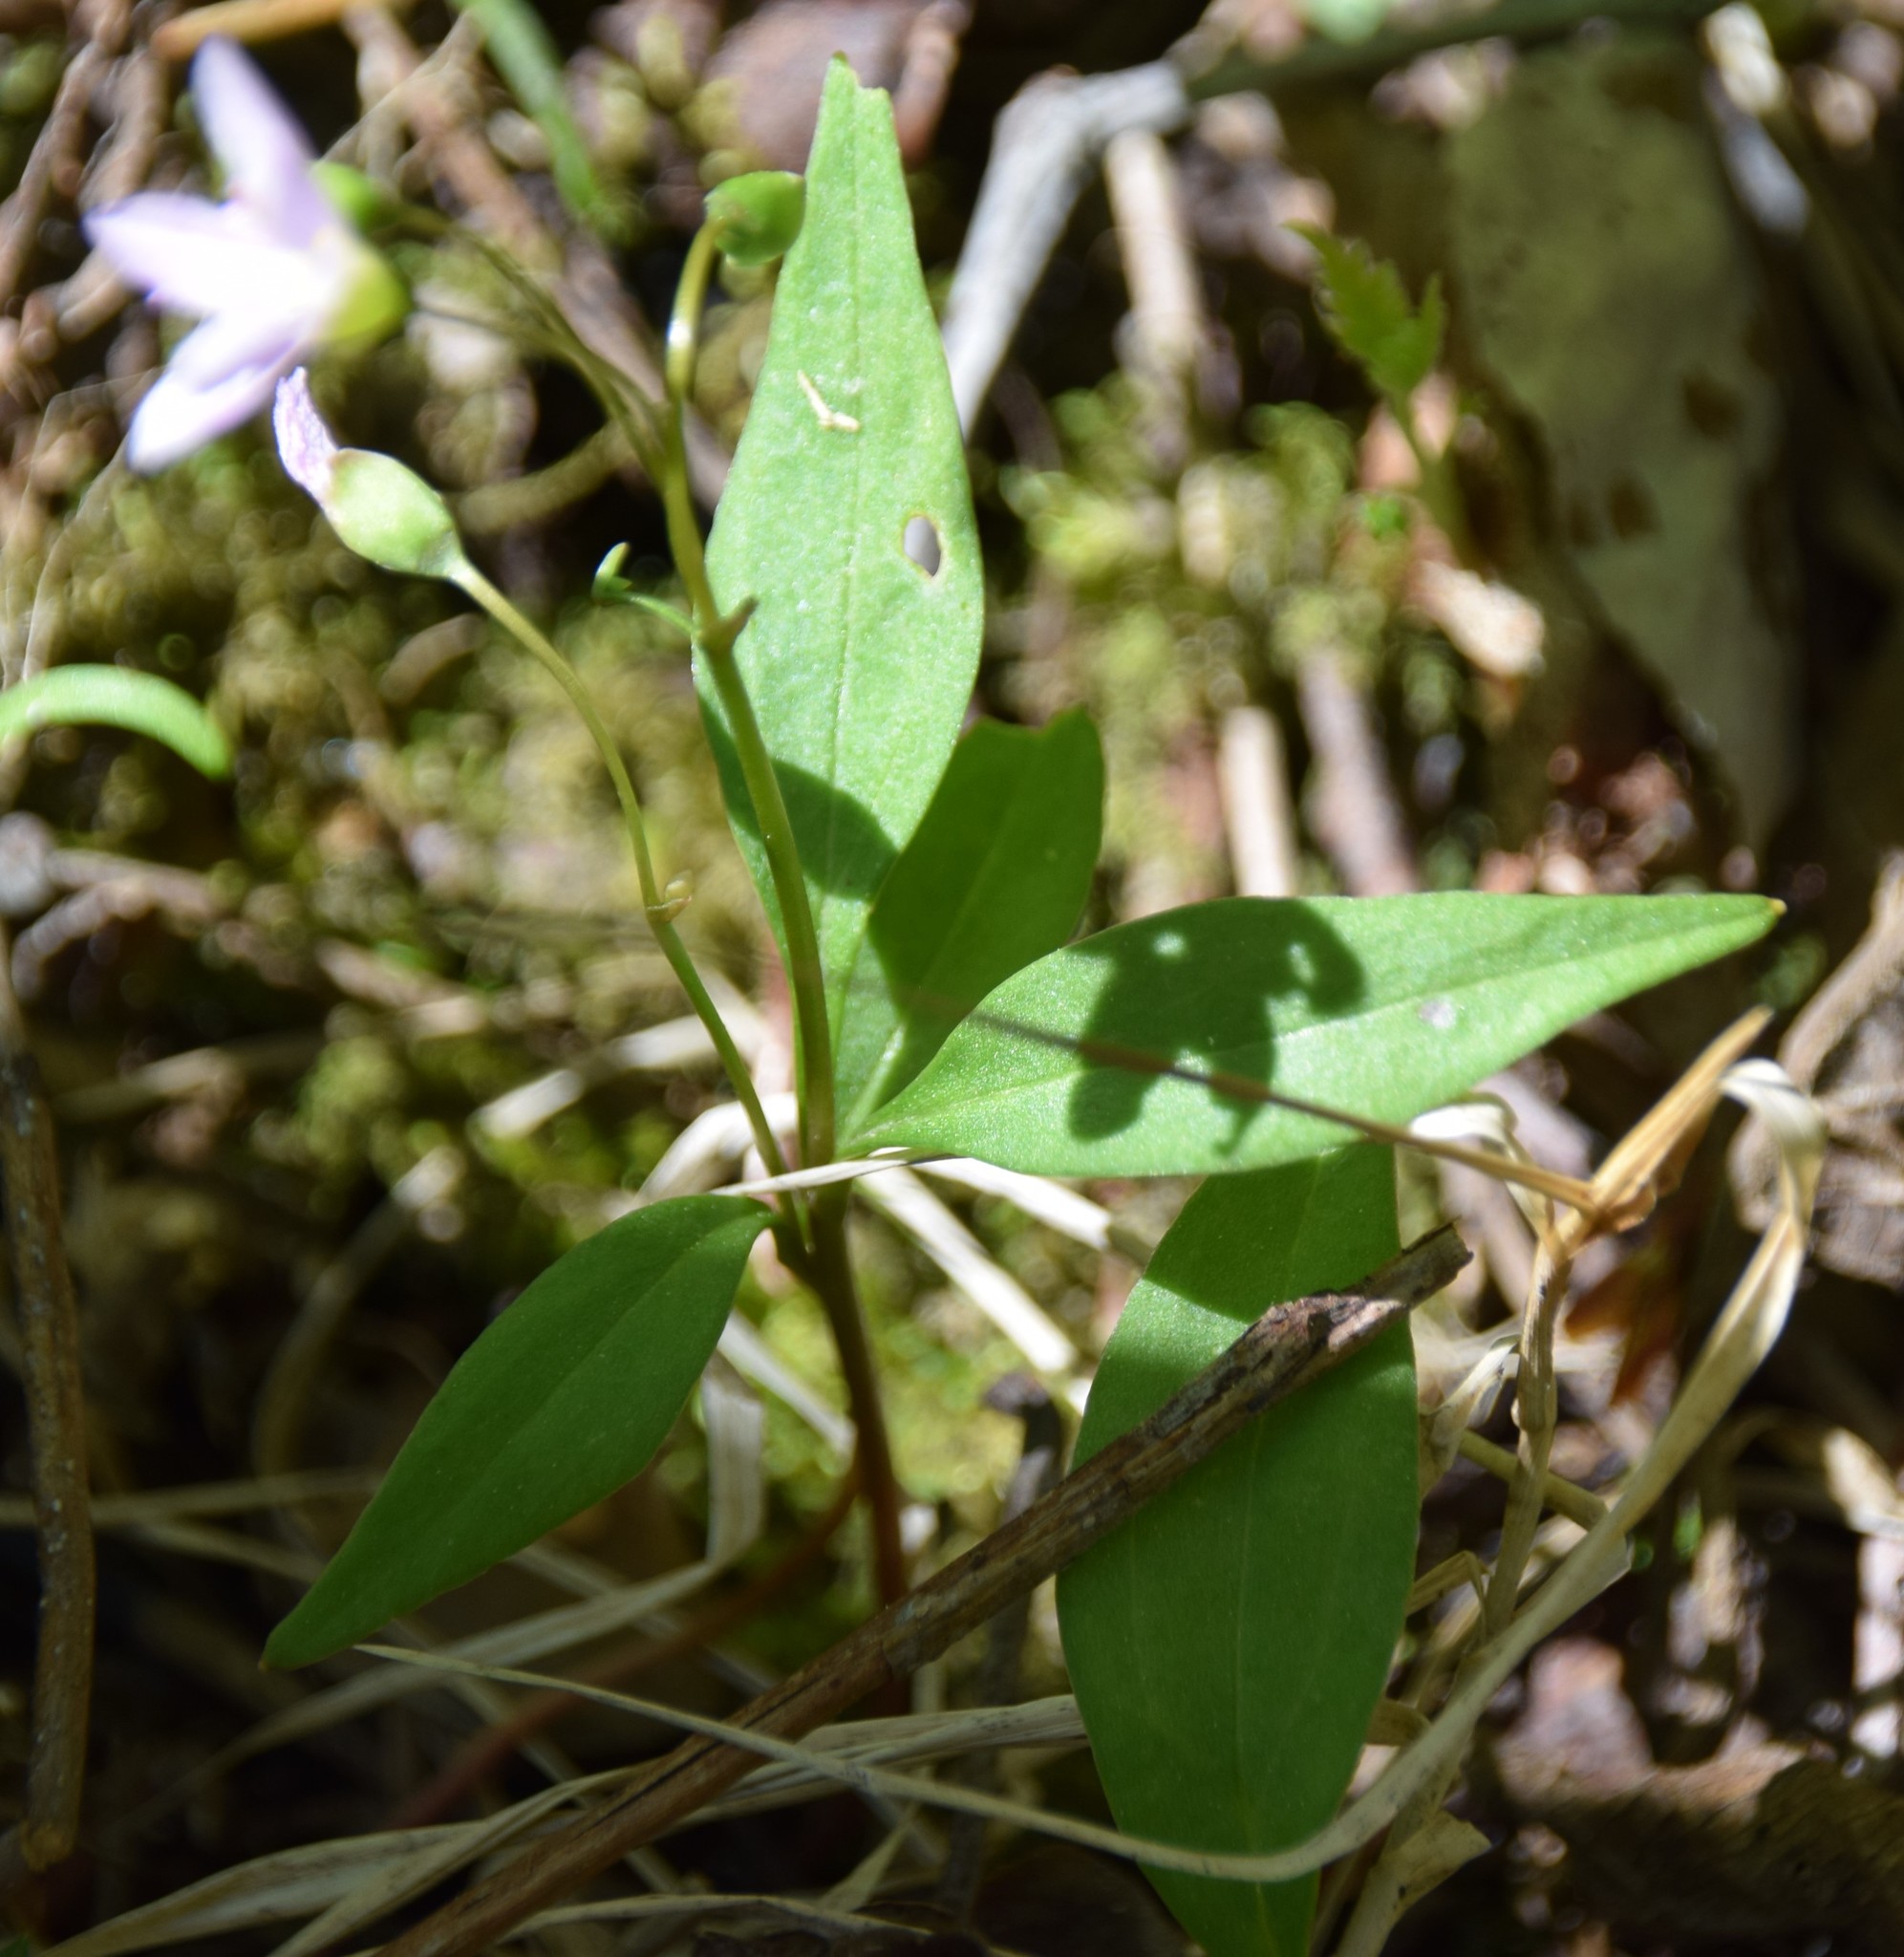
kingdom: Plantae
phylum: Tracheophyta
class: Magnoliopsida
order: Caryophyllales
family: Montiaceae
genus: Claytonia
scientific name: Claytonia caroliniana
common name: Carolina spring beauty
